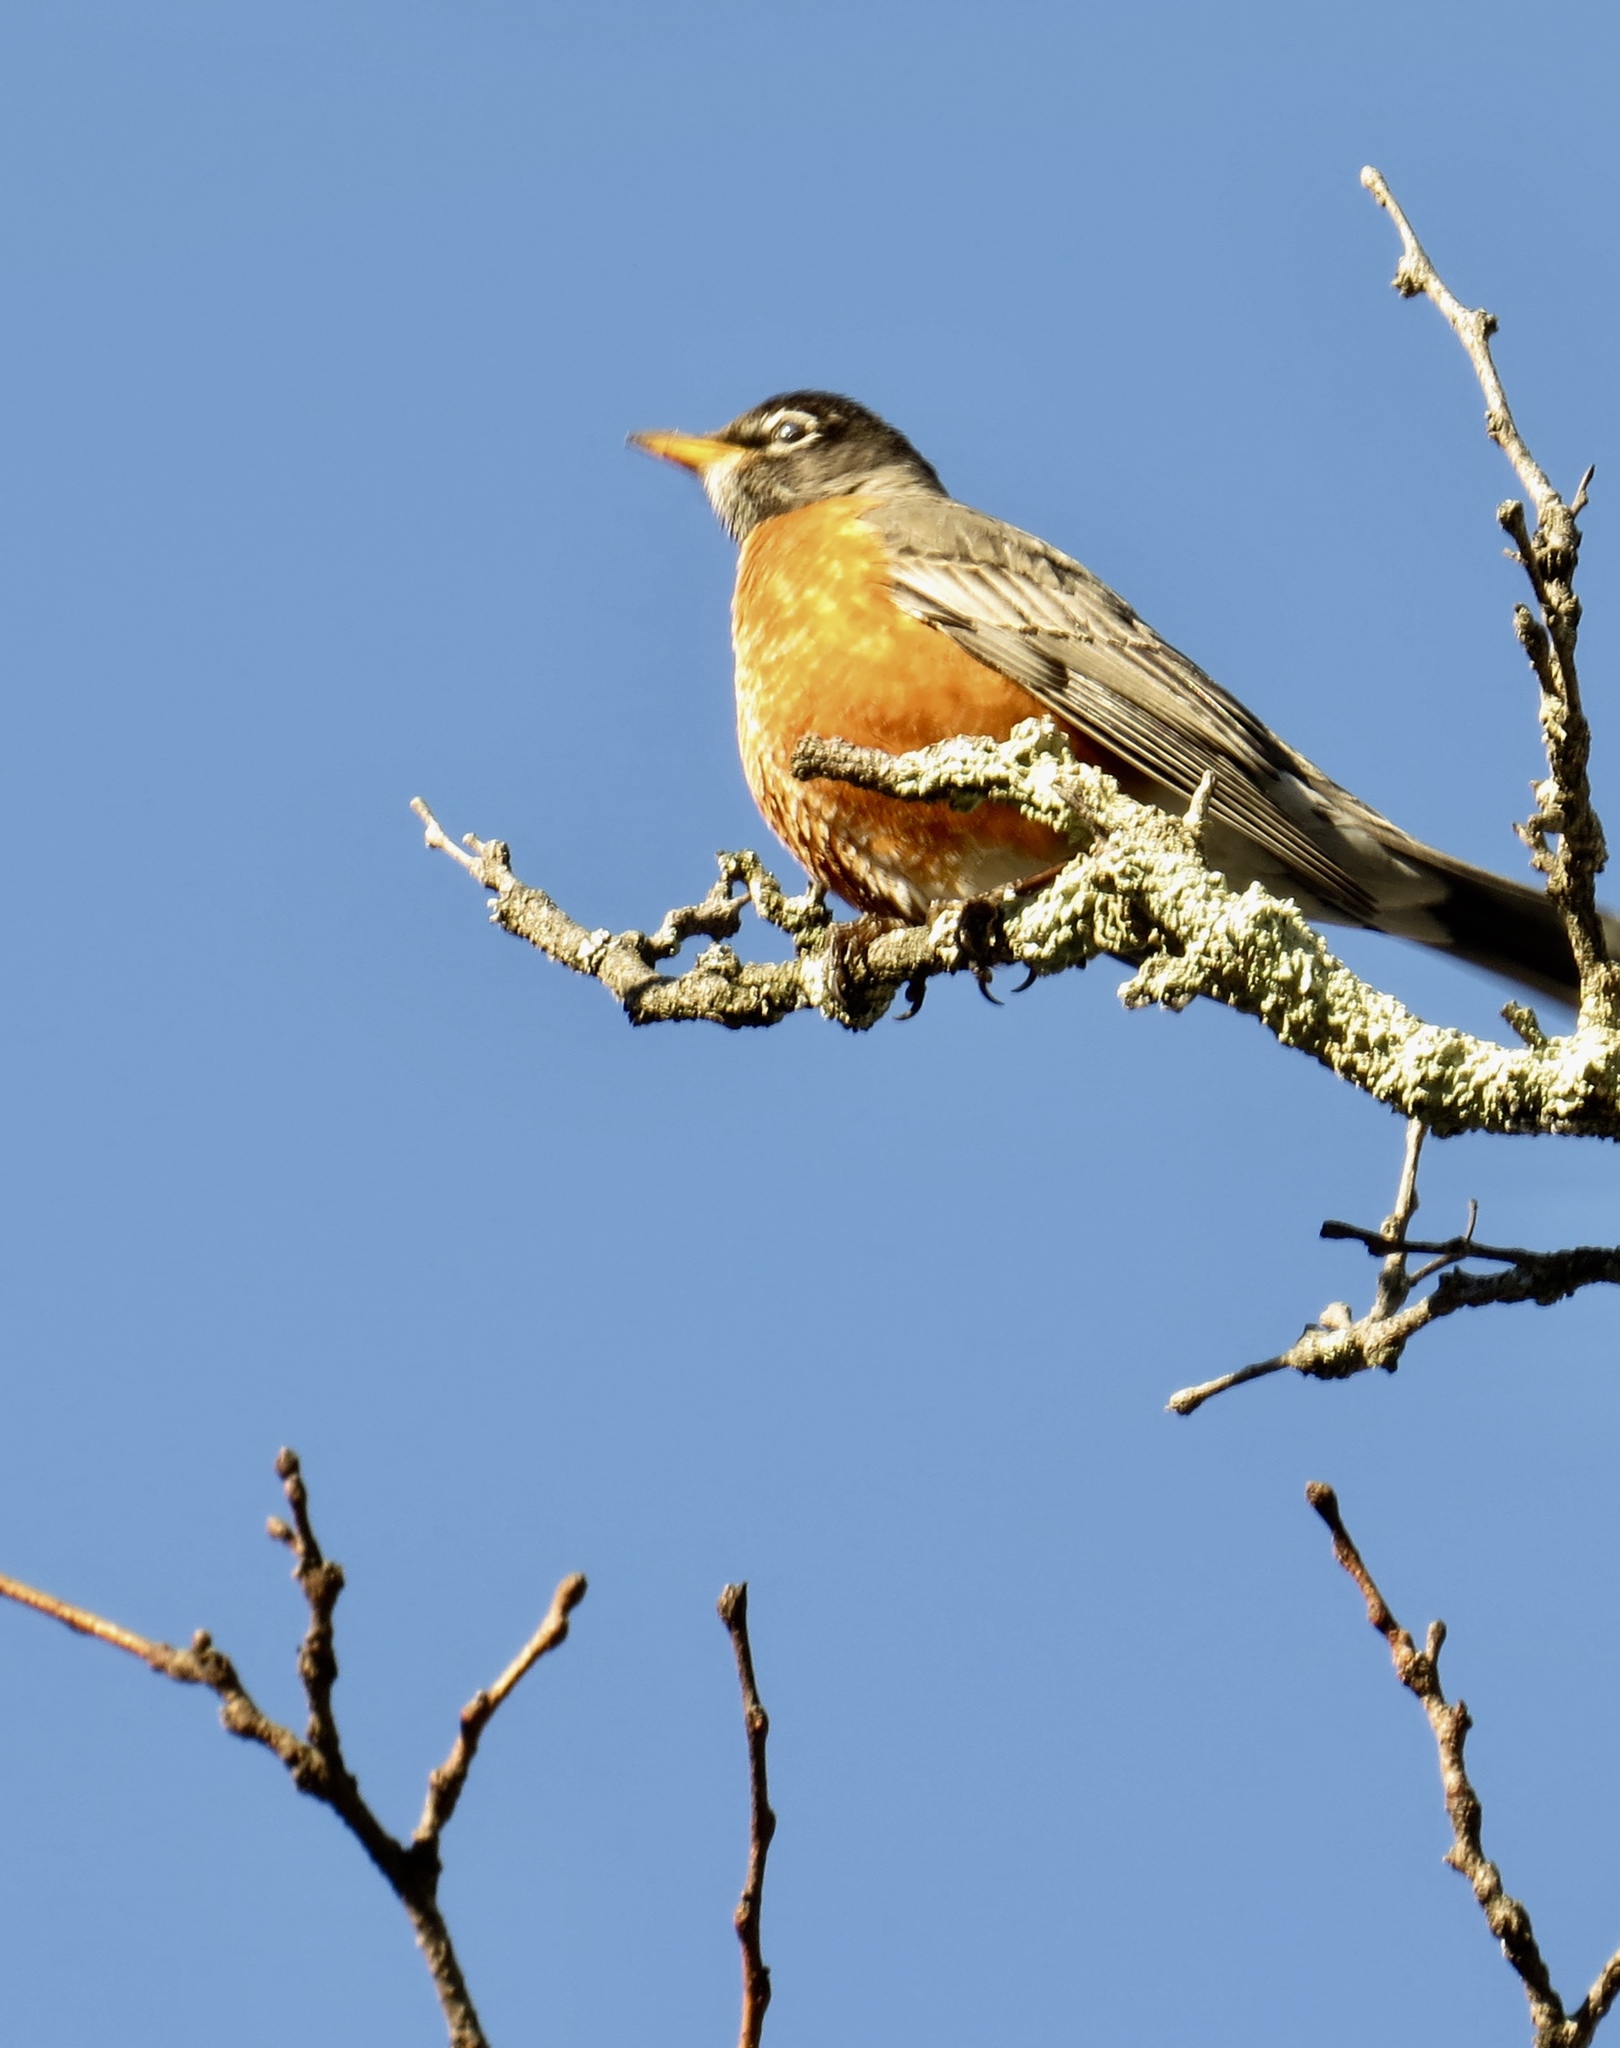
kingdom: Animalia
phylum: Chordata
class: Aves
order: Passeriformes
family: Turdidae
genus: Turdus
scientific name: Turdus migratorius
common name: American robin
